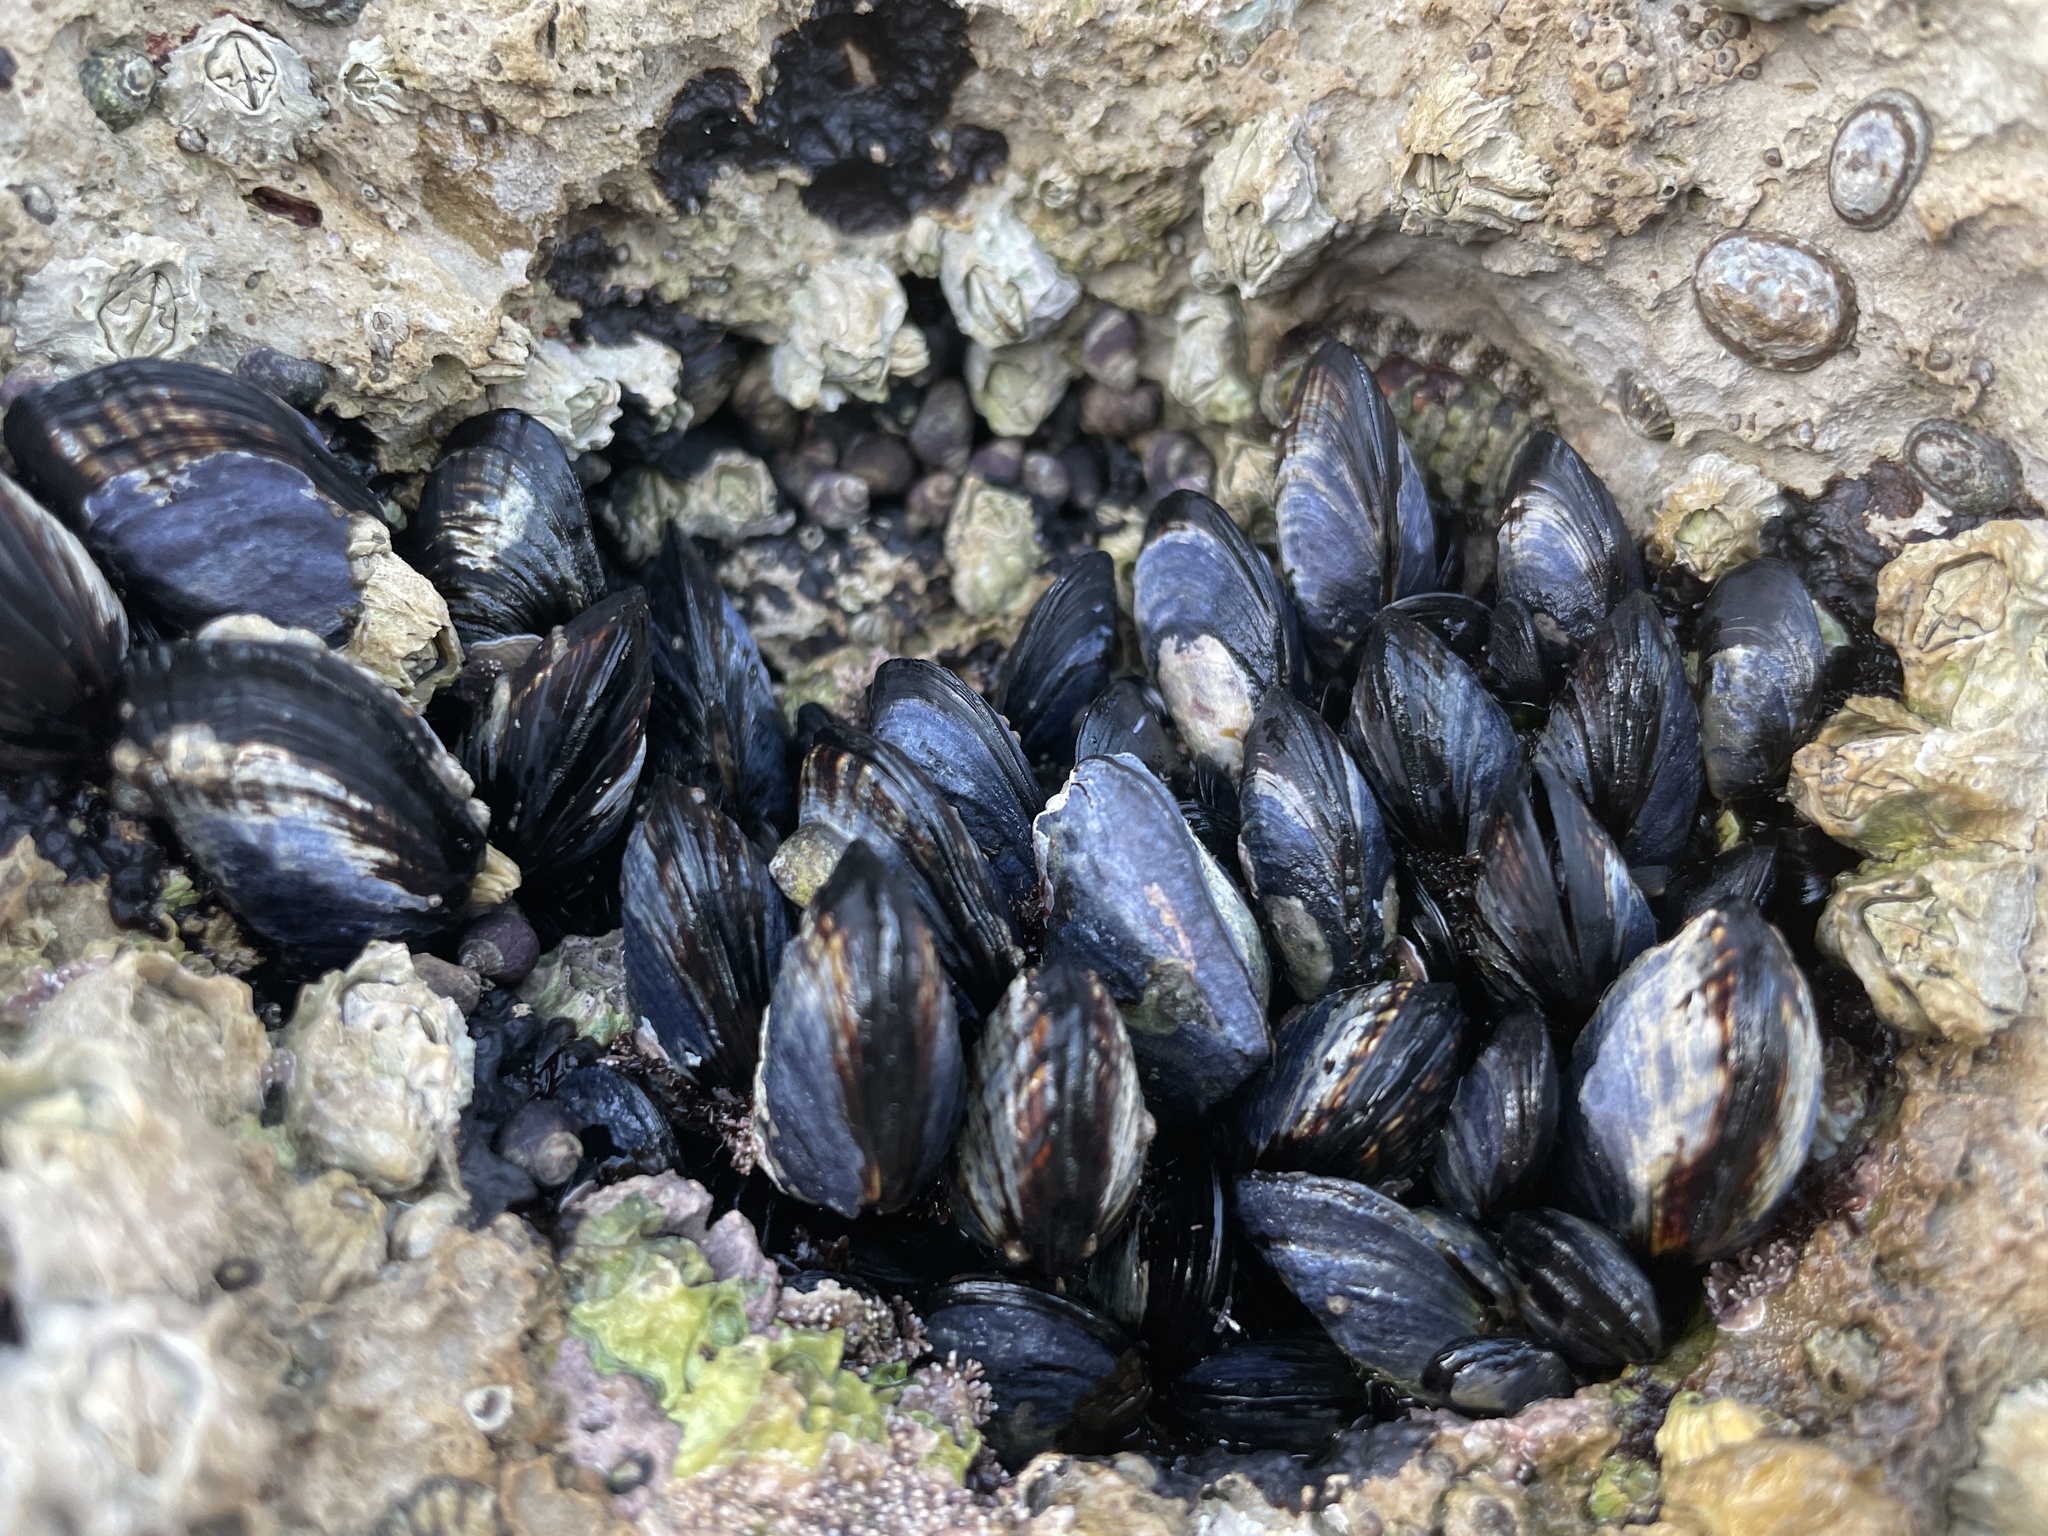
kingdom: Animalia
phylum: Mollusca
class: Bivalvia
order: Mytilida
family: Mytilidae
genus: Mytilus
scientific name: Mytilus californianus
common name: California mussel
